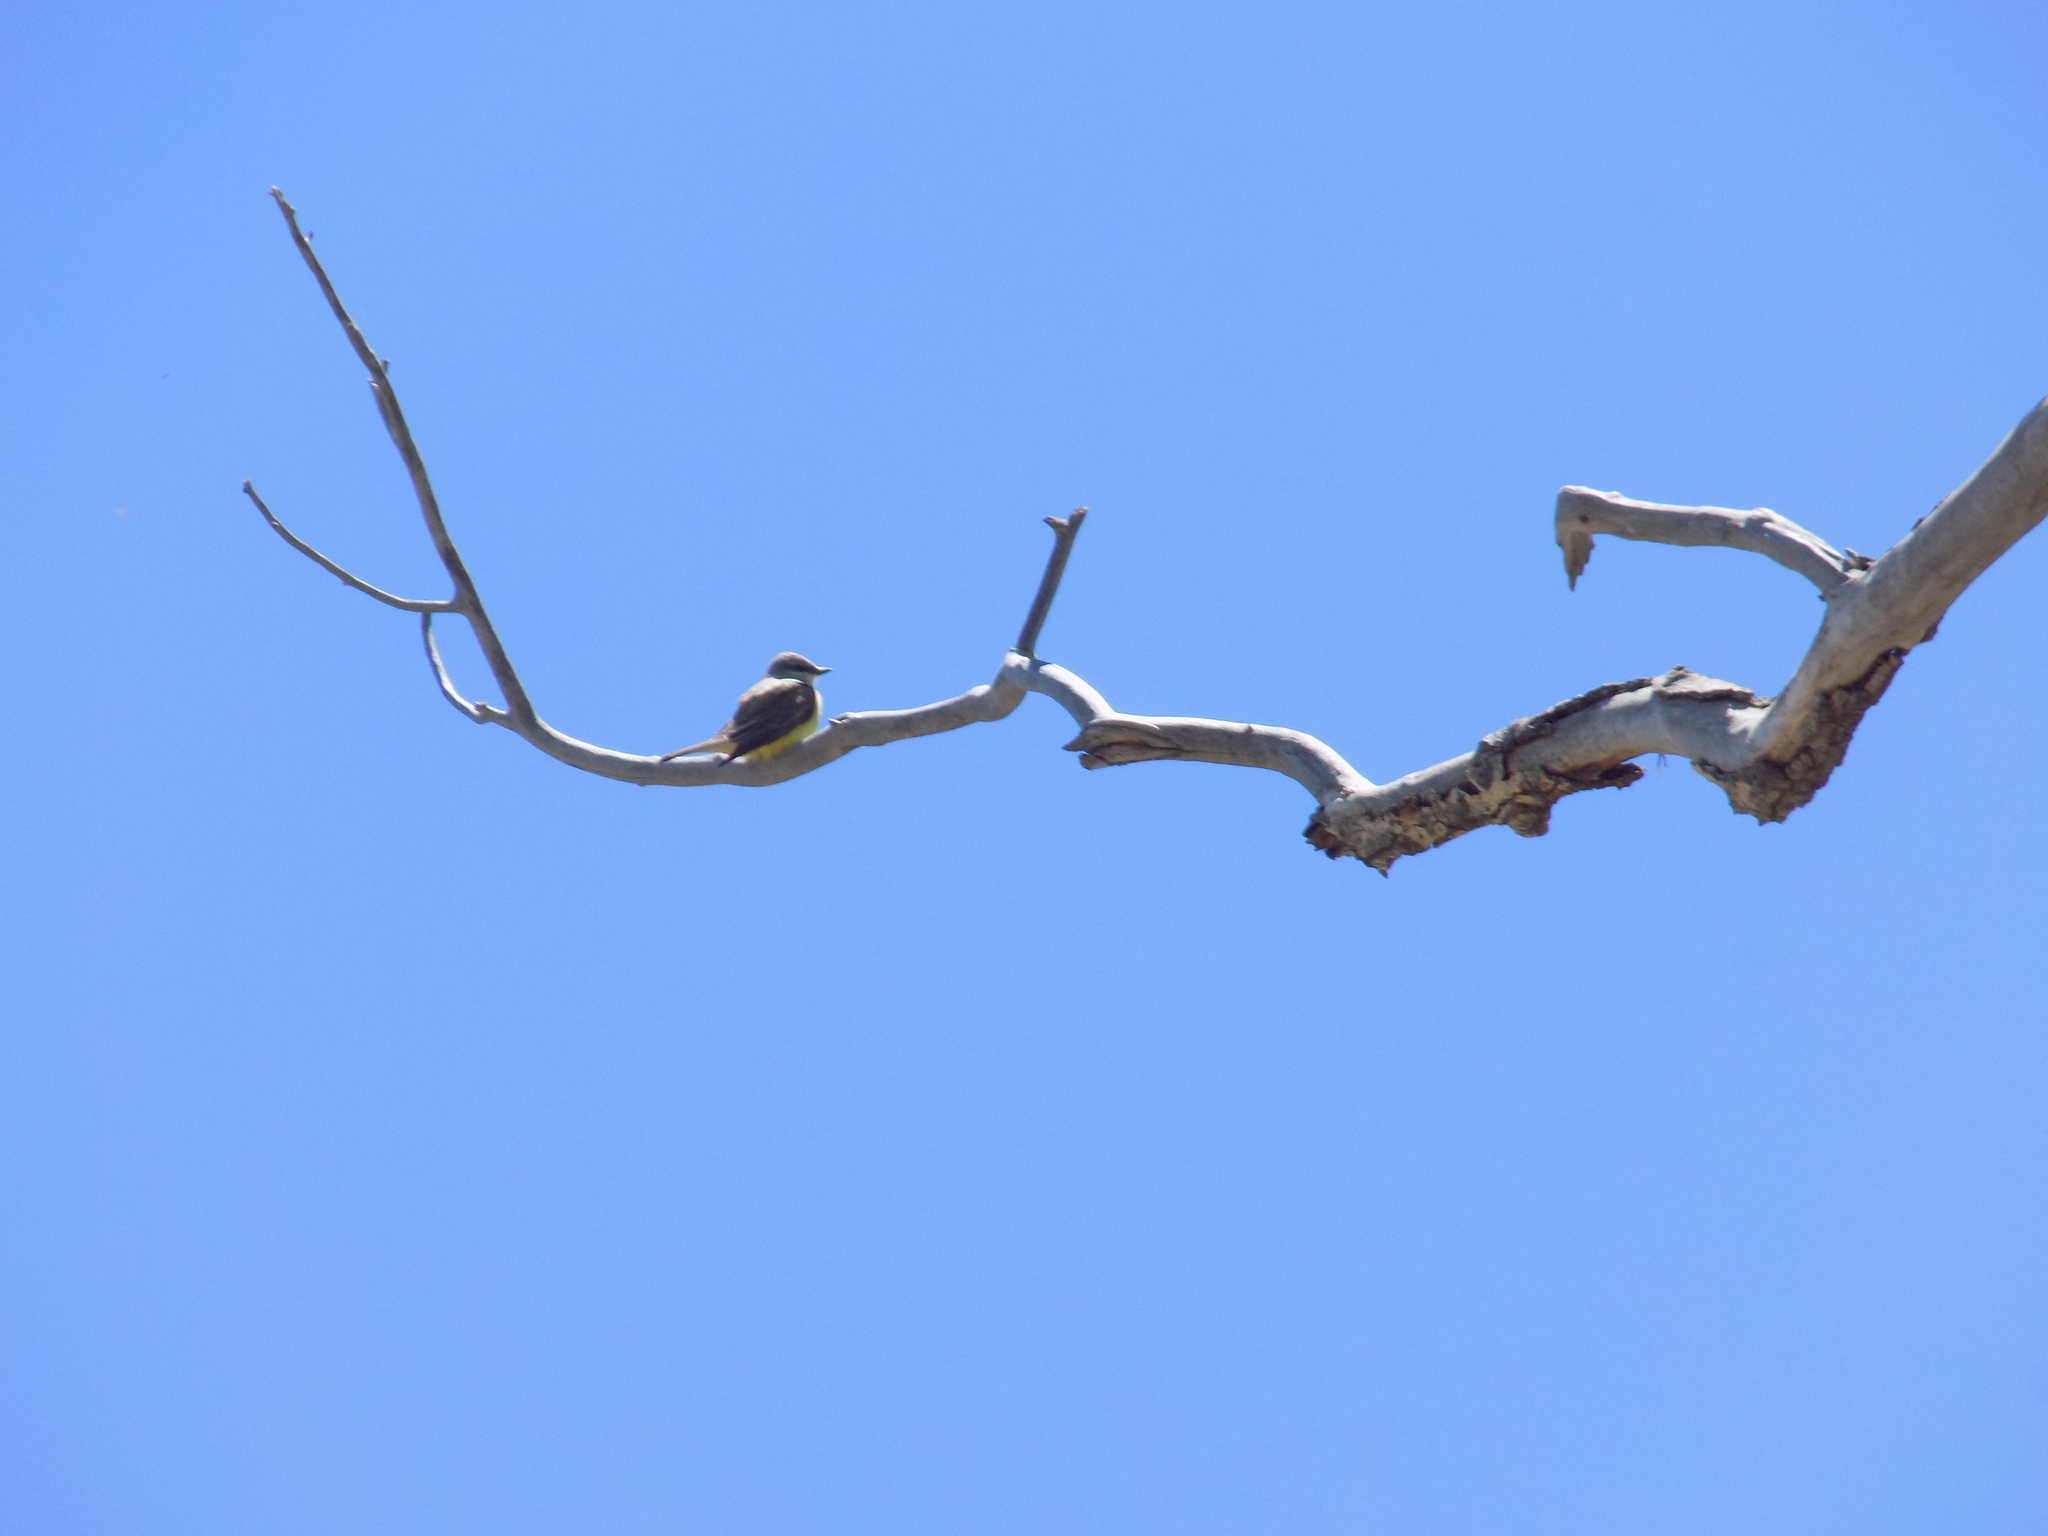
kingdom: Animalia
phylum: Chordata
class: Aves
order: Passeriformes
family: Tyrannidae
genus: Tyrannus
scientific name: Tyrannus verticalis
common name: Western kingbird
